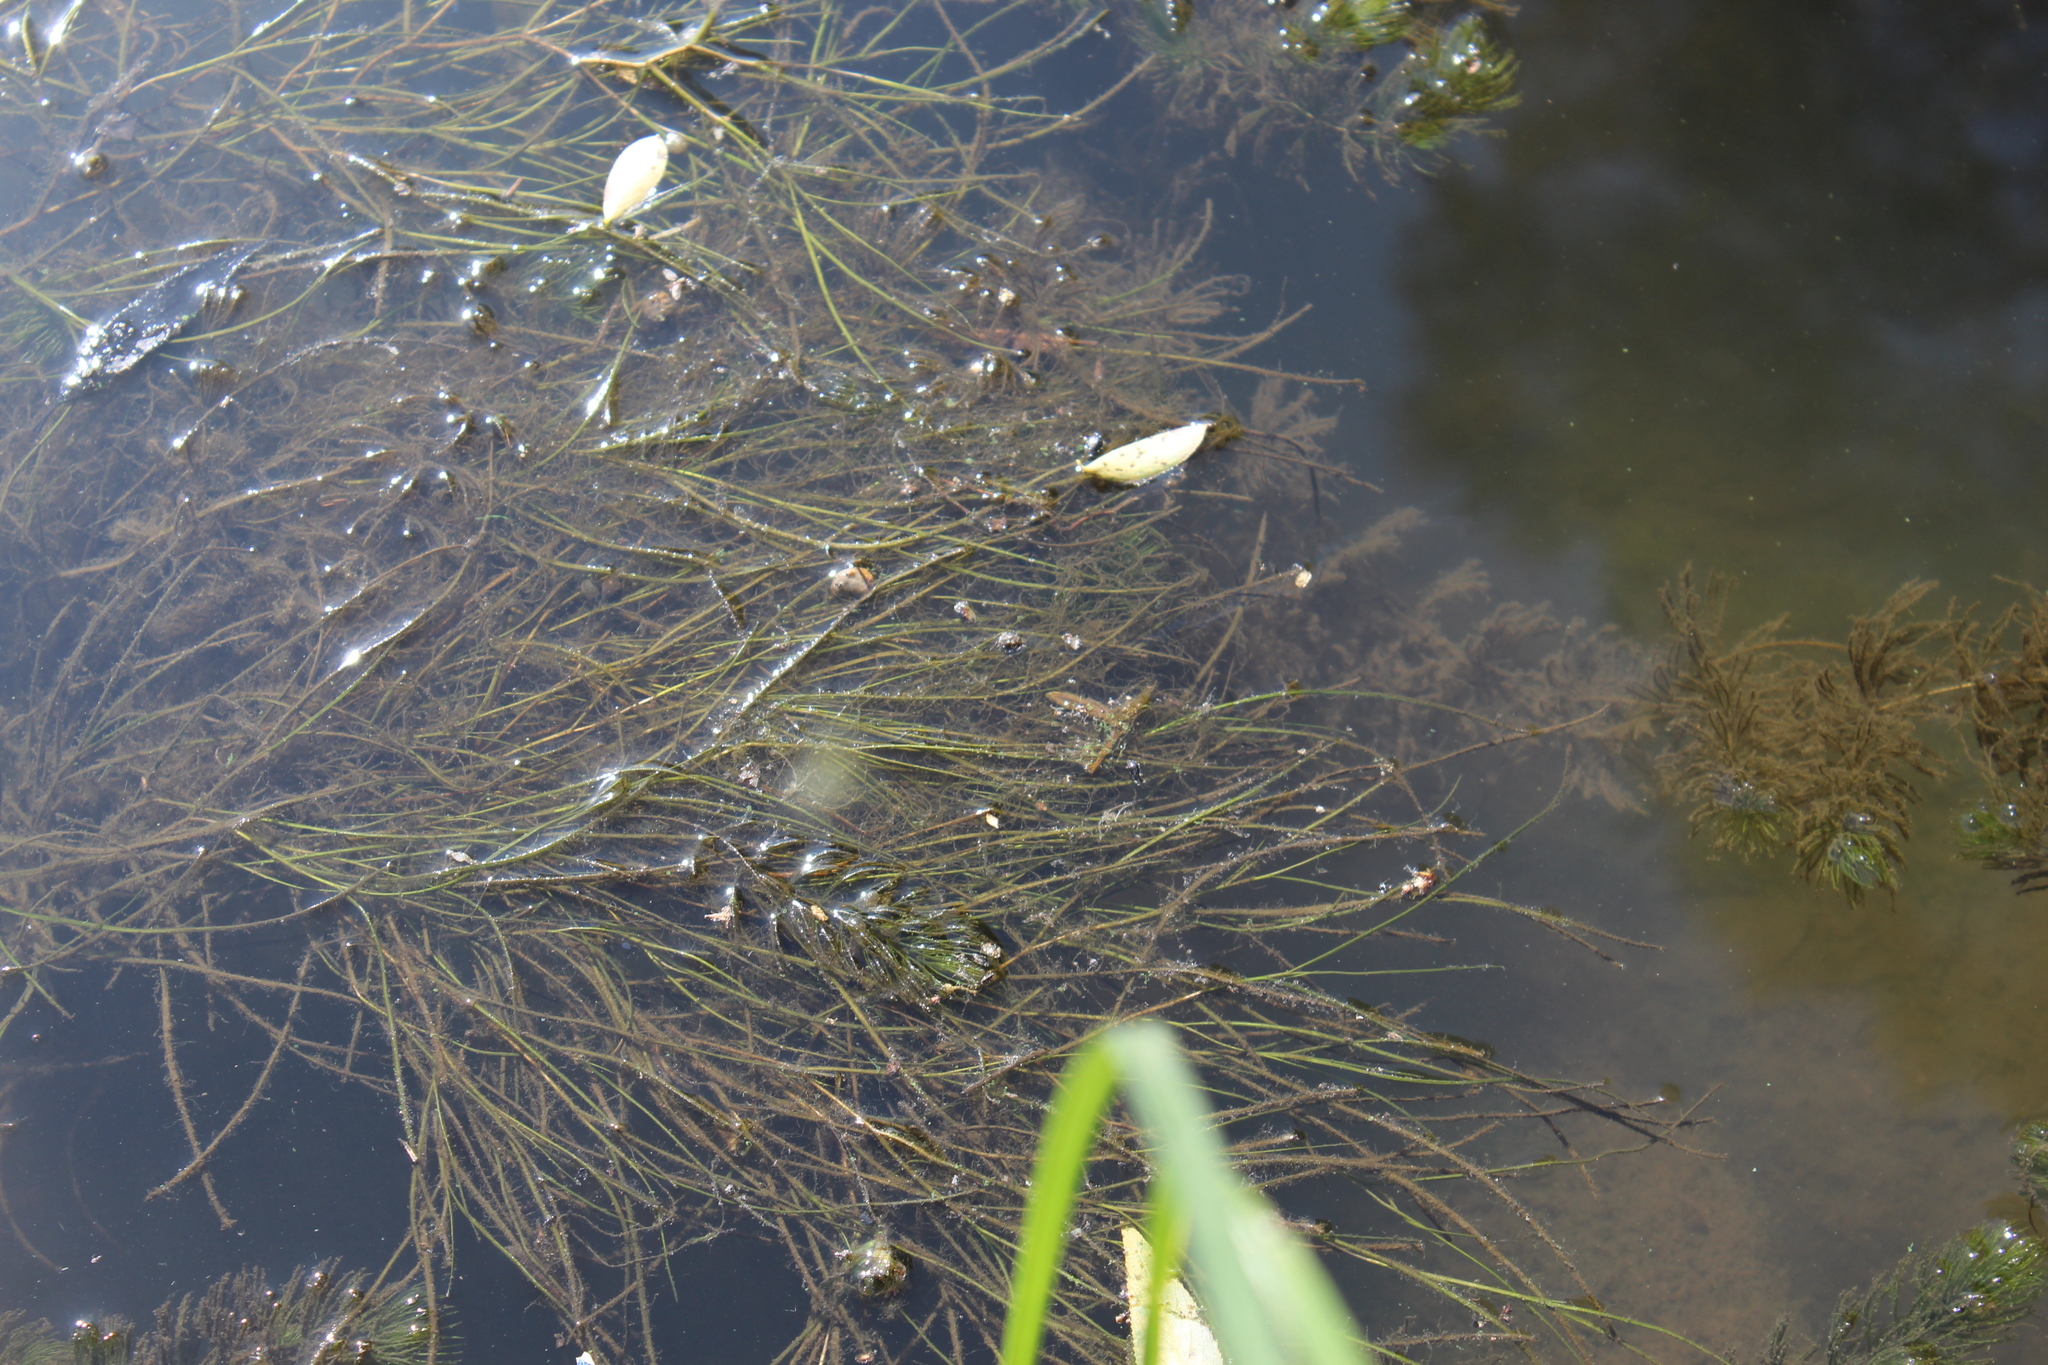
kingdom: Plantae
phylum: Tracheophyta
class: Liliopsida
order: Alismatales
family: Potamogetonaceae
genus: Stuckenia
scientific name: Stuckenia pectinata
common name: Sago pondweed
